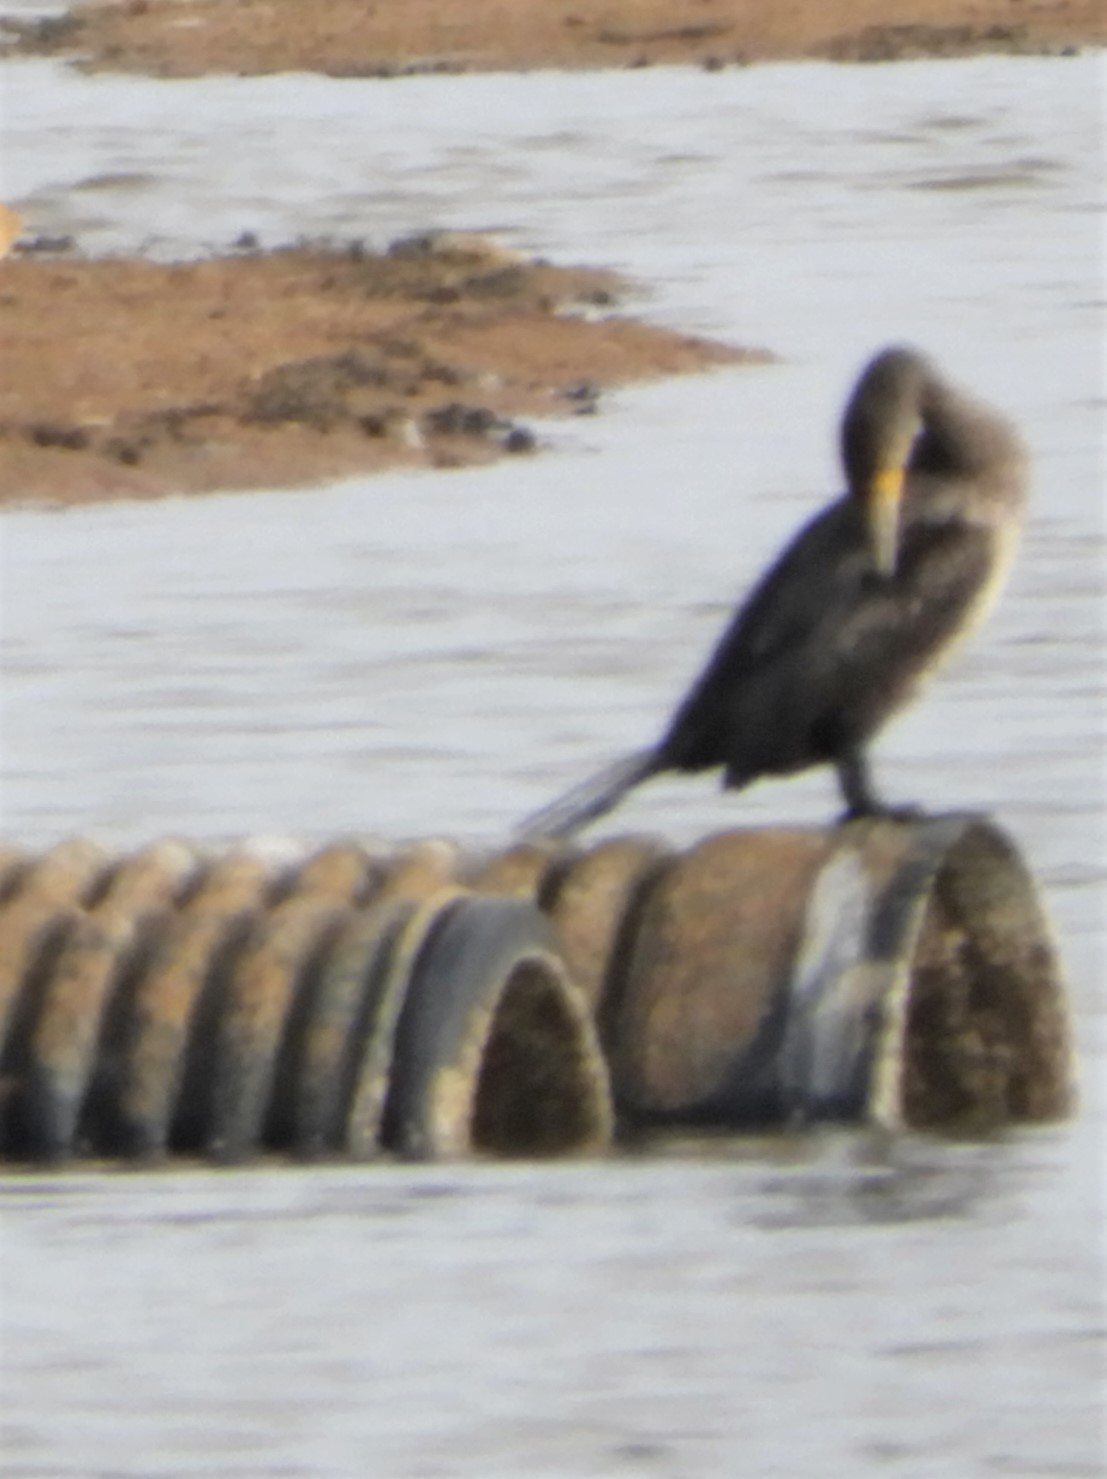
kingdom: Animalia
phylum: Chordata
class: Aves
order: Suliformes
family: Phalacrocoracidae
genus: Phalacrocorax
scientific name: Phalacrocorax carbo
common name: Great cormorant
